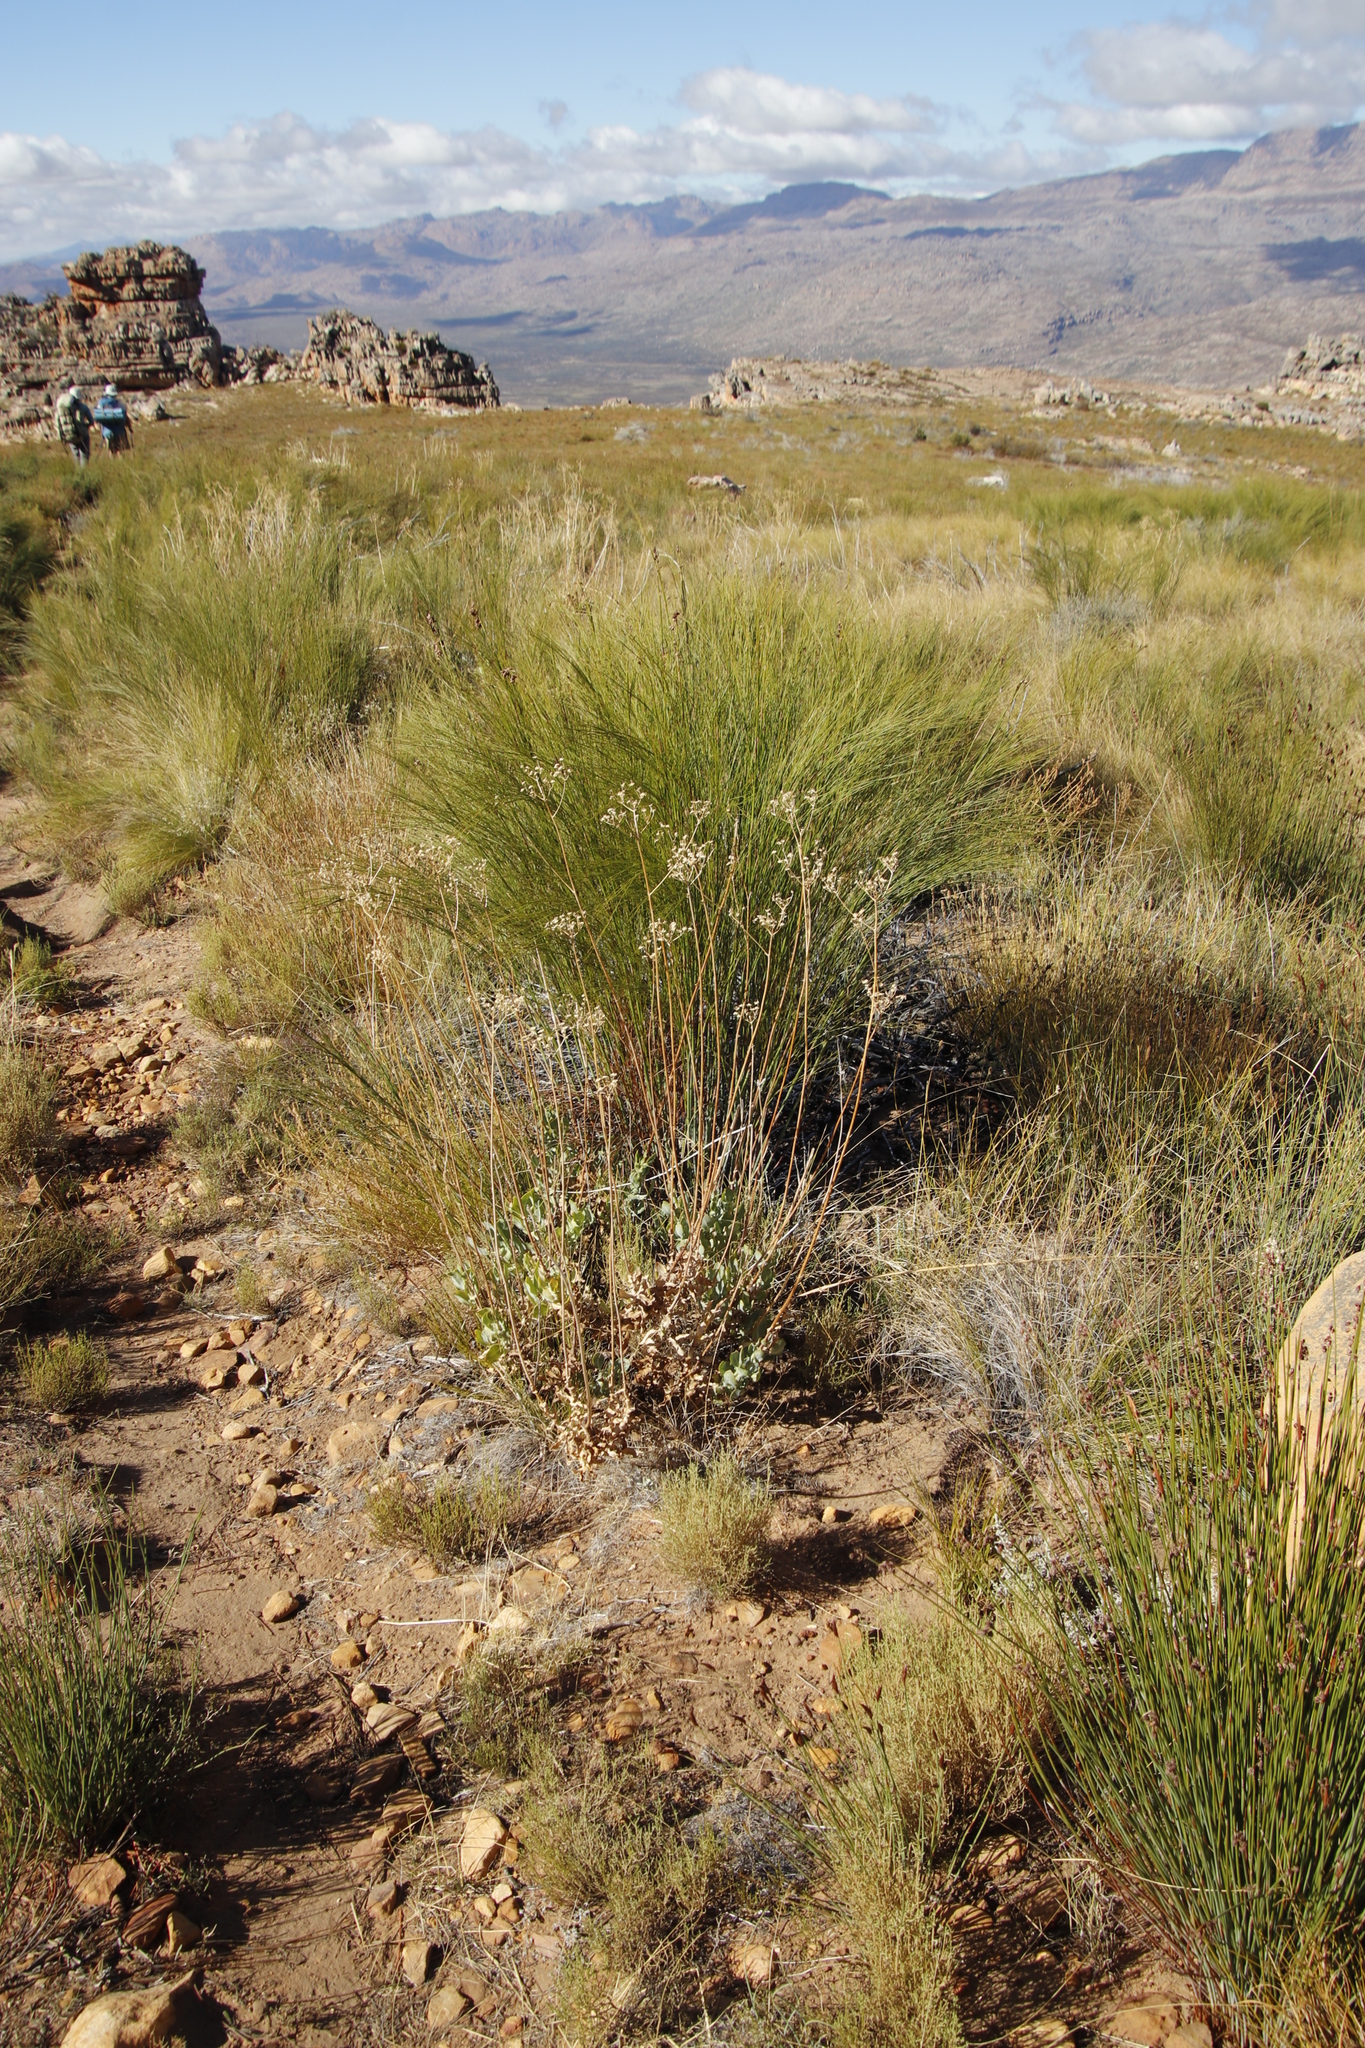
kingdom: Plantae
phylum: Tracheophyta
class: Magnoliopsida
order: Asterales
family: Asteraceae
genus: Othonna
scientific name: Othonna parviflora
